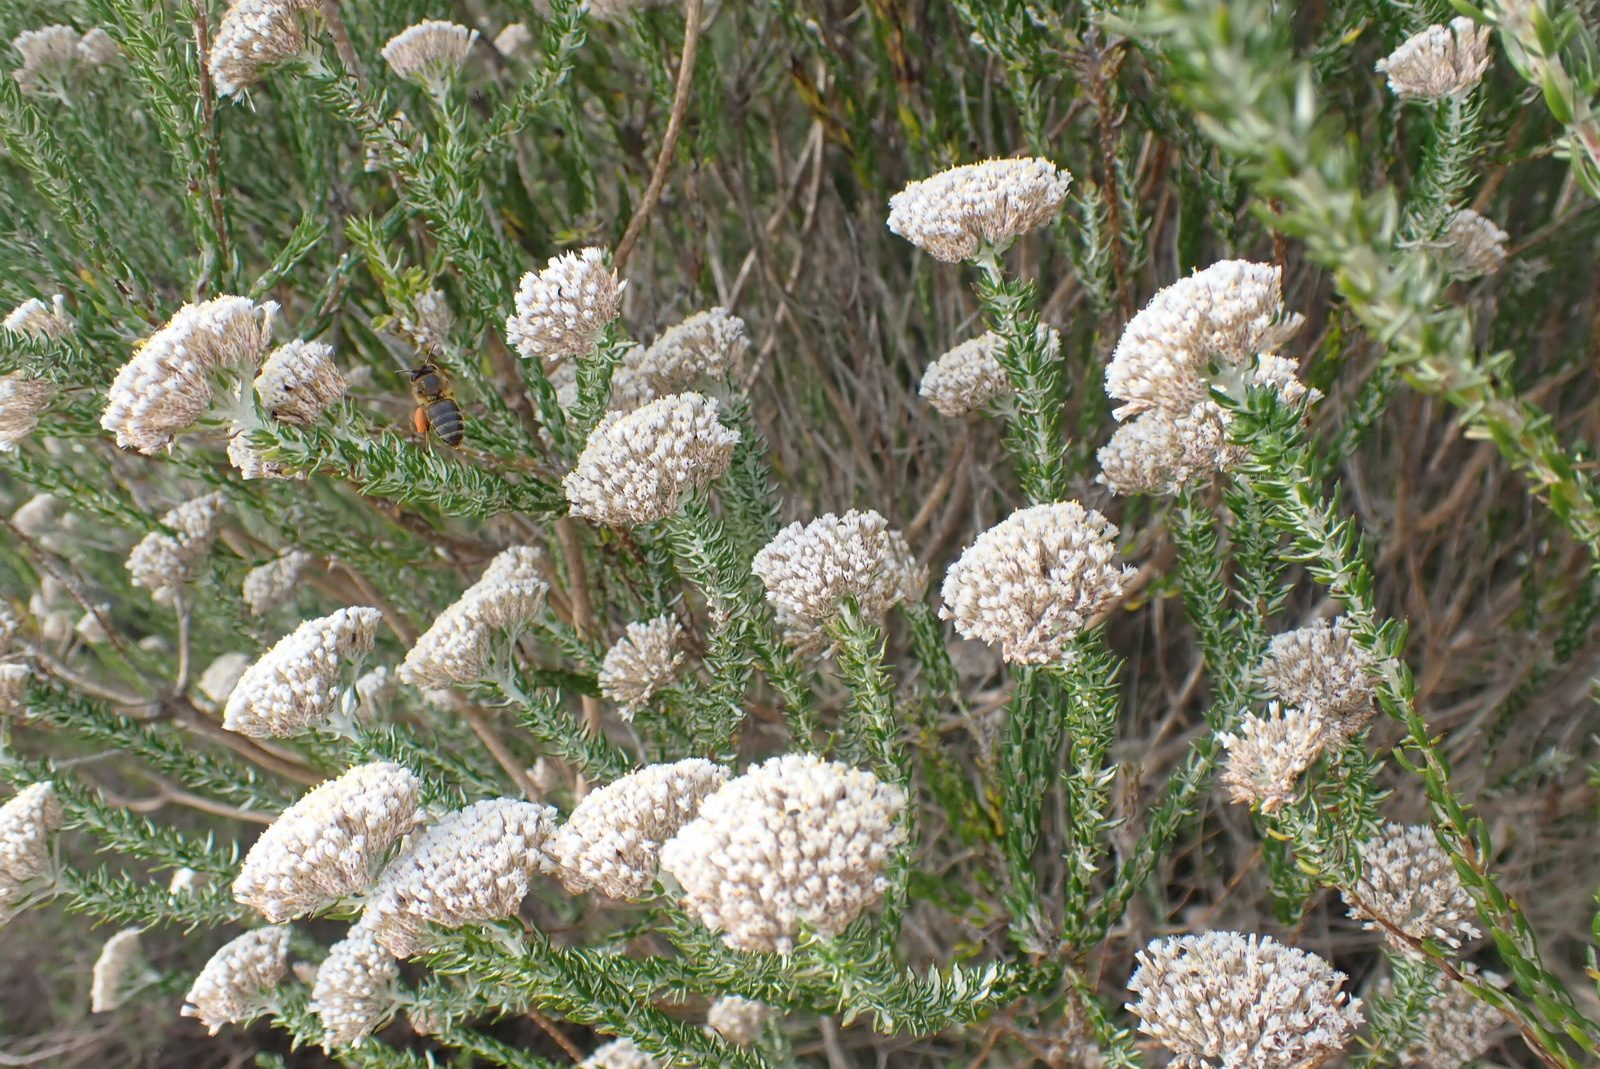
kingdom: Plantae
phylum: Tracheophyta
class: Magnoliopsida
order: Asterales
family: Asteraceae
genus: Metalasia
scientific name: Metalasia pungens
